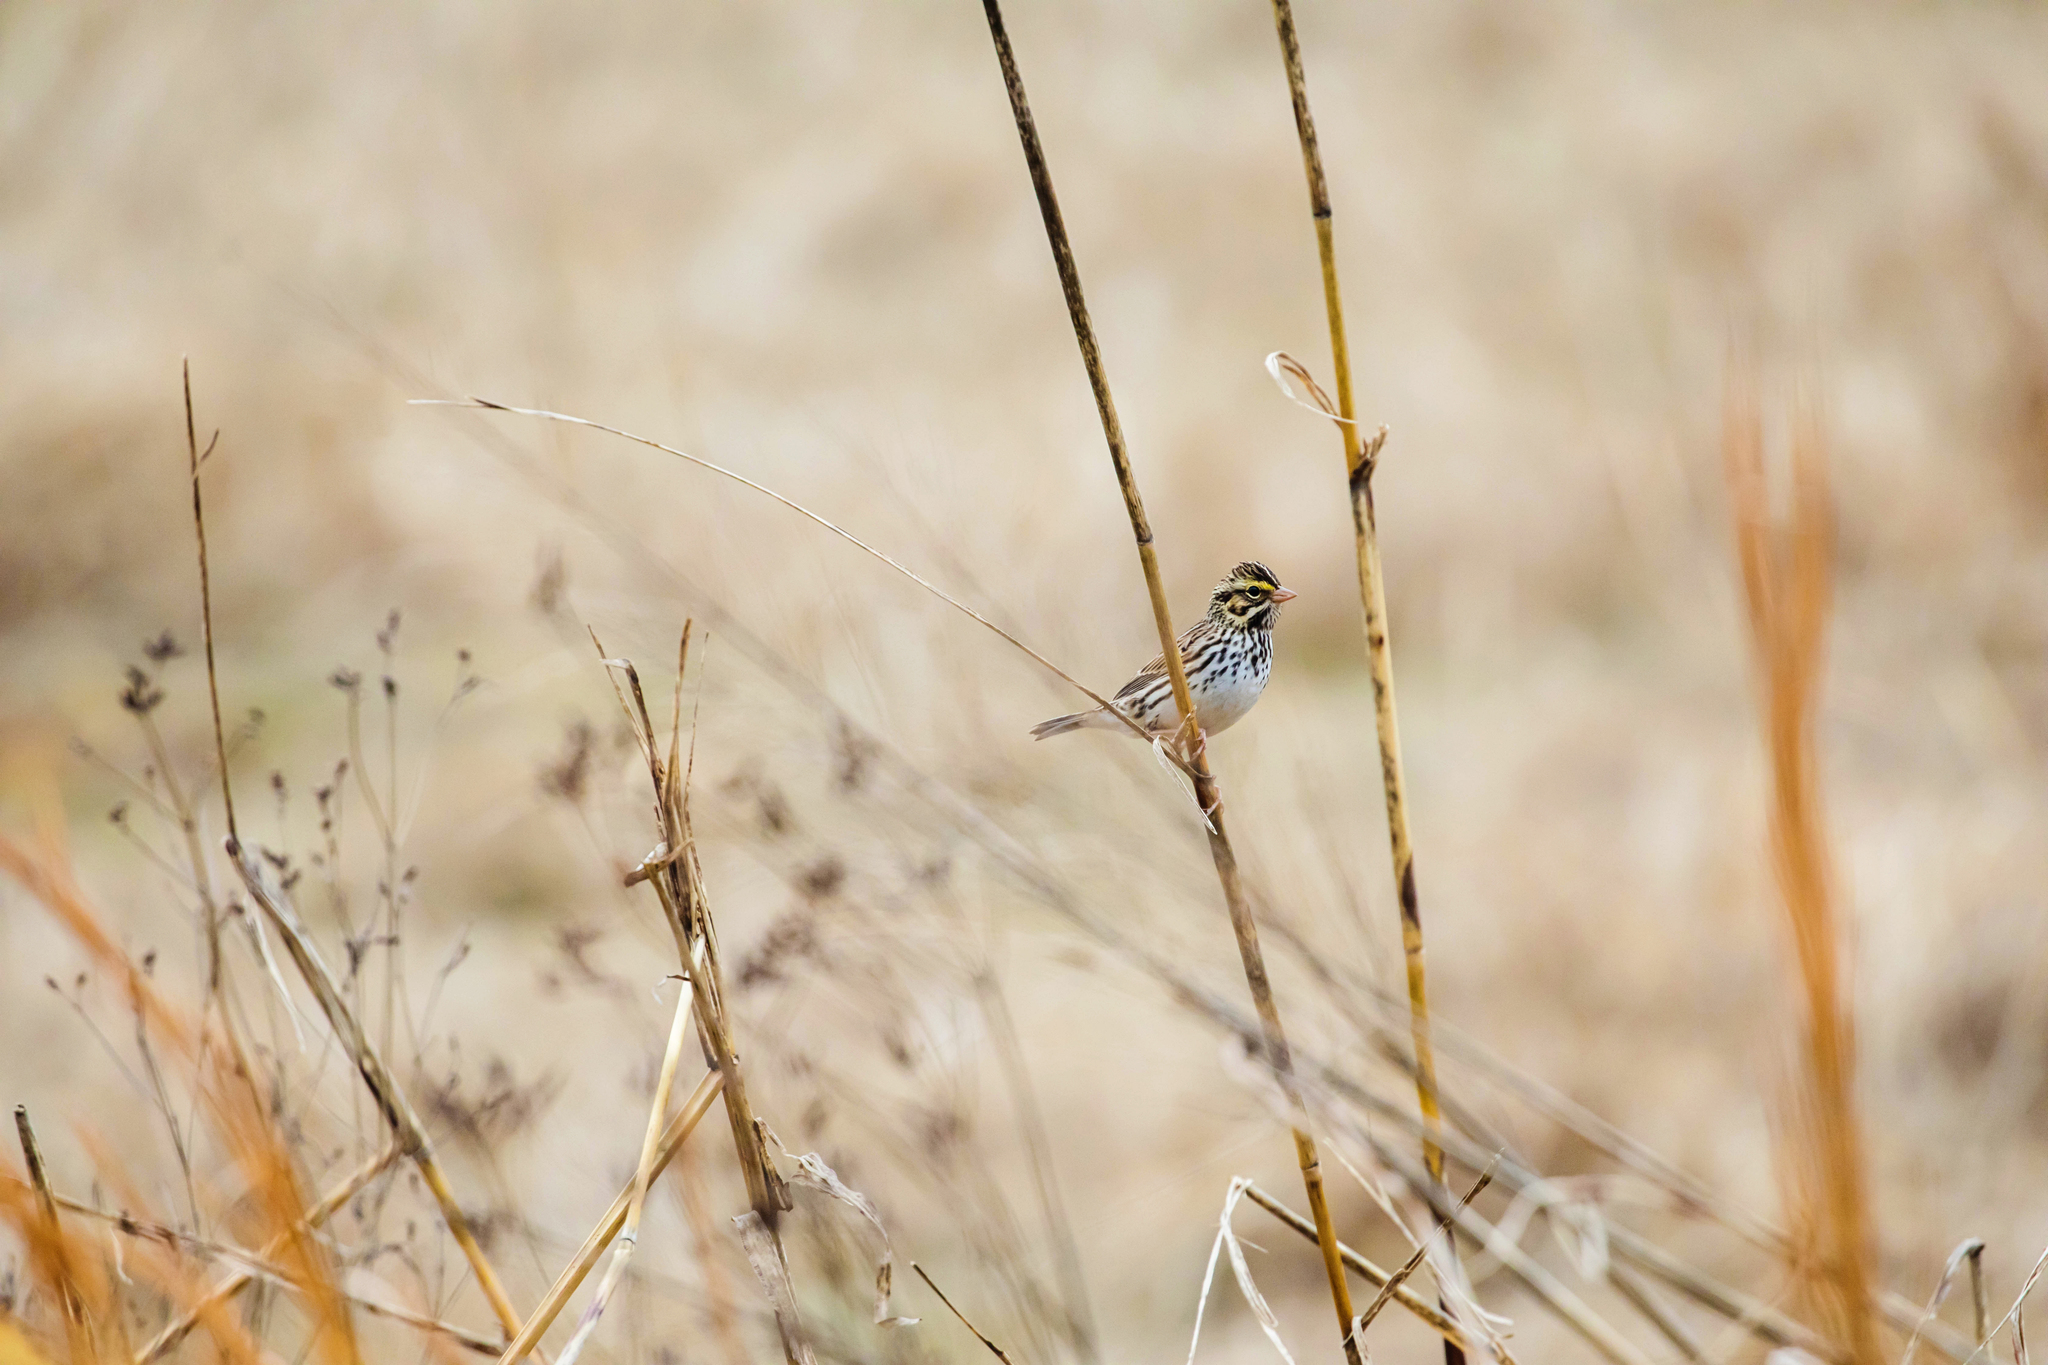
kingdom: Animalia
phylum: Chordata
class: Aves
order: Passeriformes
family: Passerellidae
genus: Passerculus
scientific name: Passerculus sandwichensis
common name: Savannah sparrow
